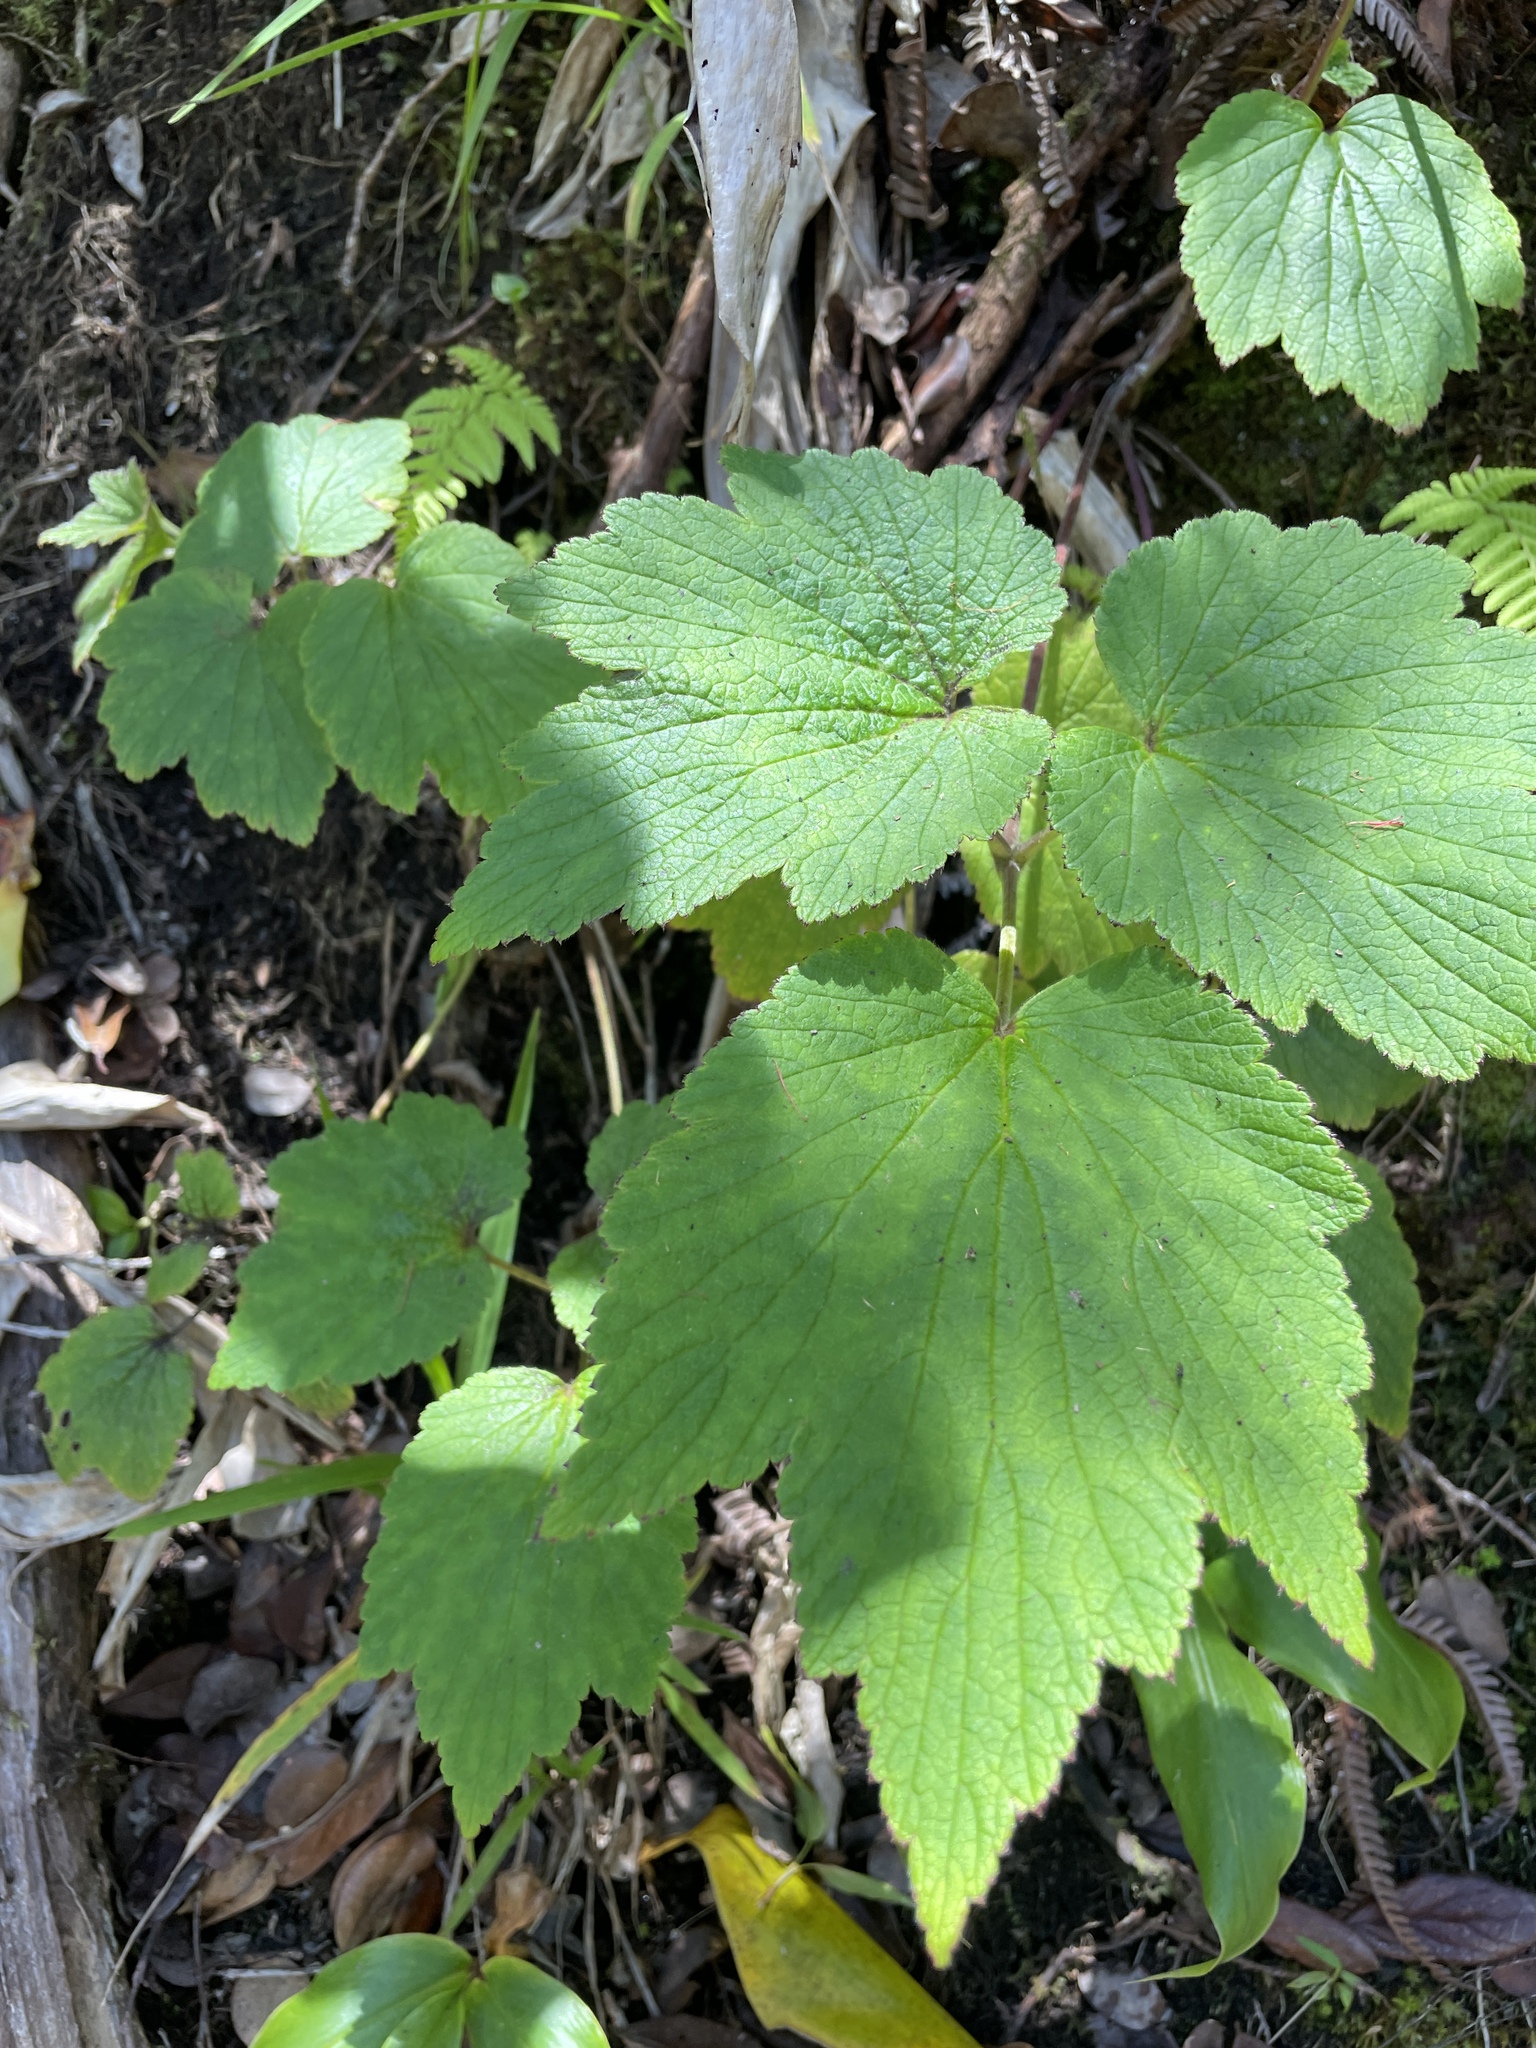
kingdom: Plantae
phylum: Tracheophyta
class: Magnoliopsida
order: Ranunculales
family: Ranunculaceae
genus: Eriocapitella
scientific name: Eriocapitella japonica
